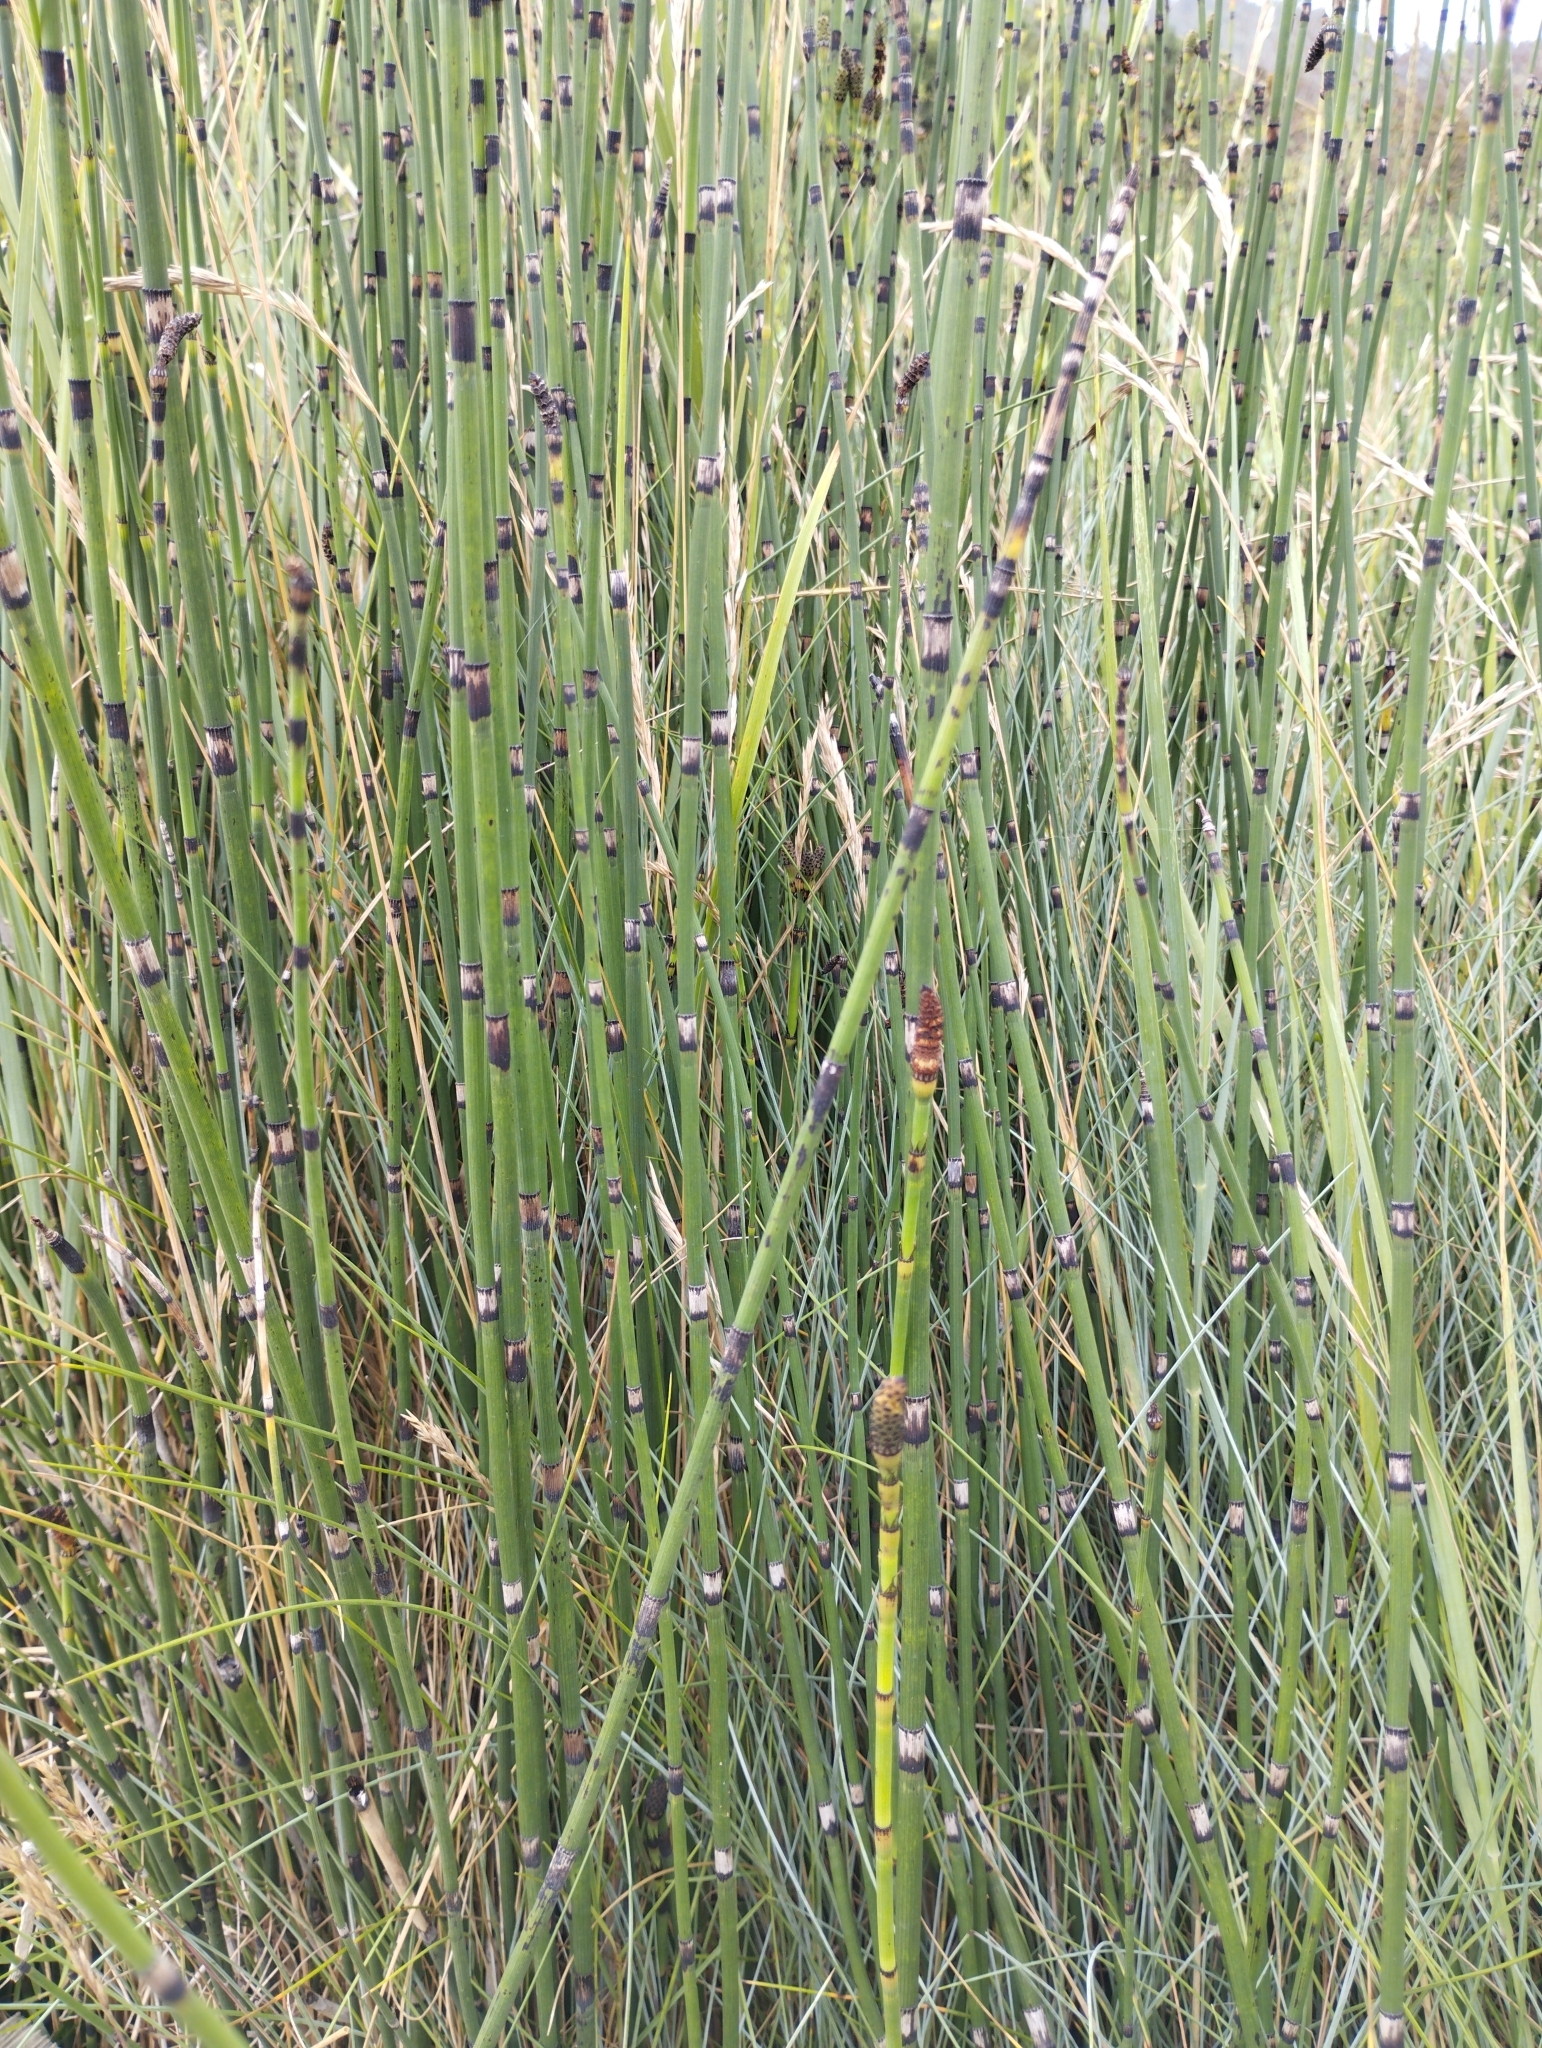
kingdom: Plantae
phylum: Tracheophyta
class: Polypodiopsida
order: Equisetales
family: Equisetaceae
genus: Equisetum
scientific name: Equisetum moorei
